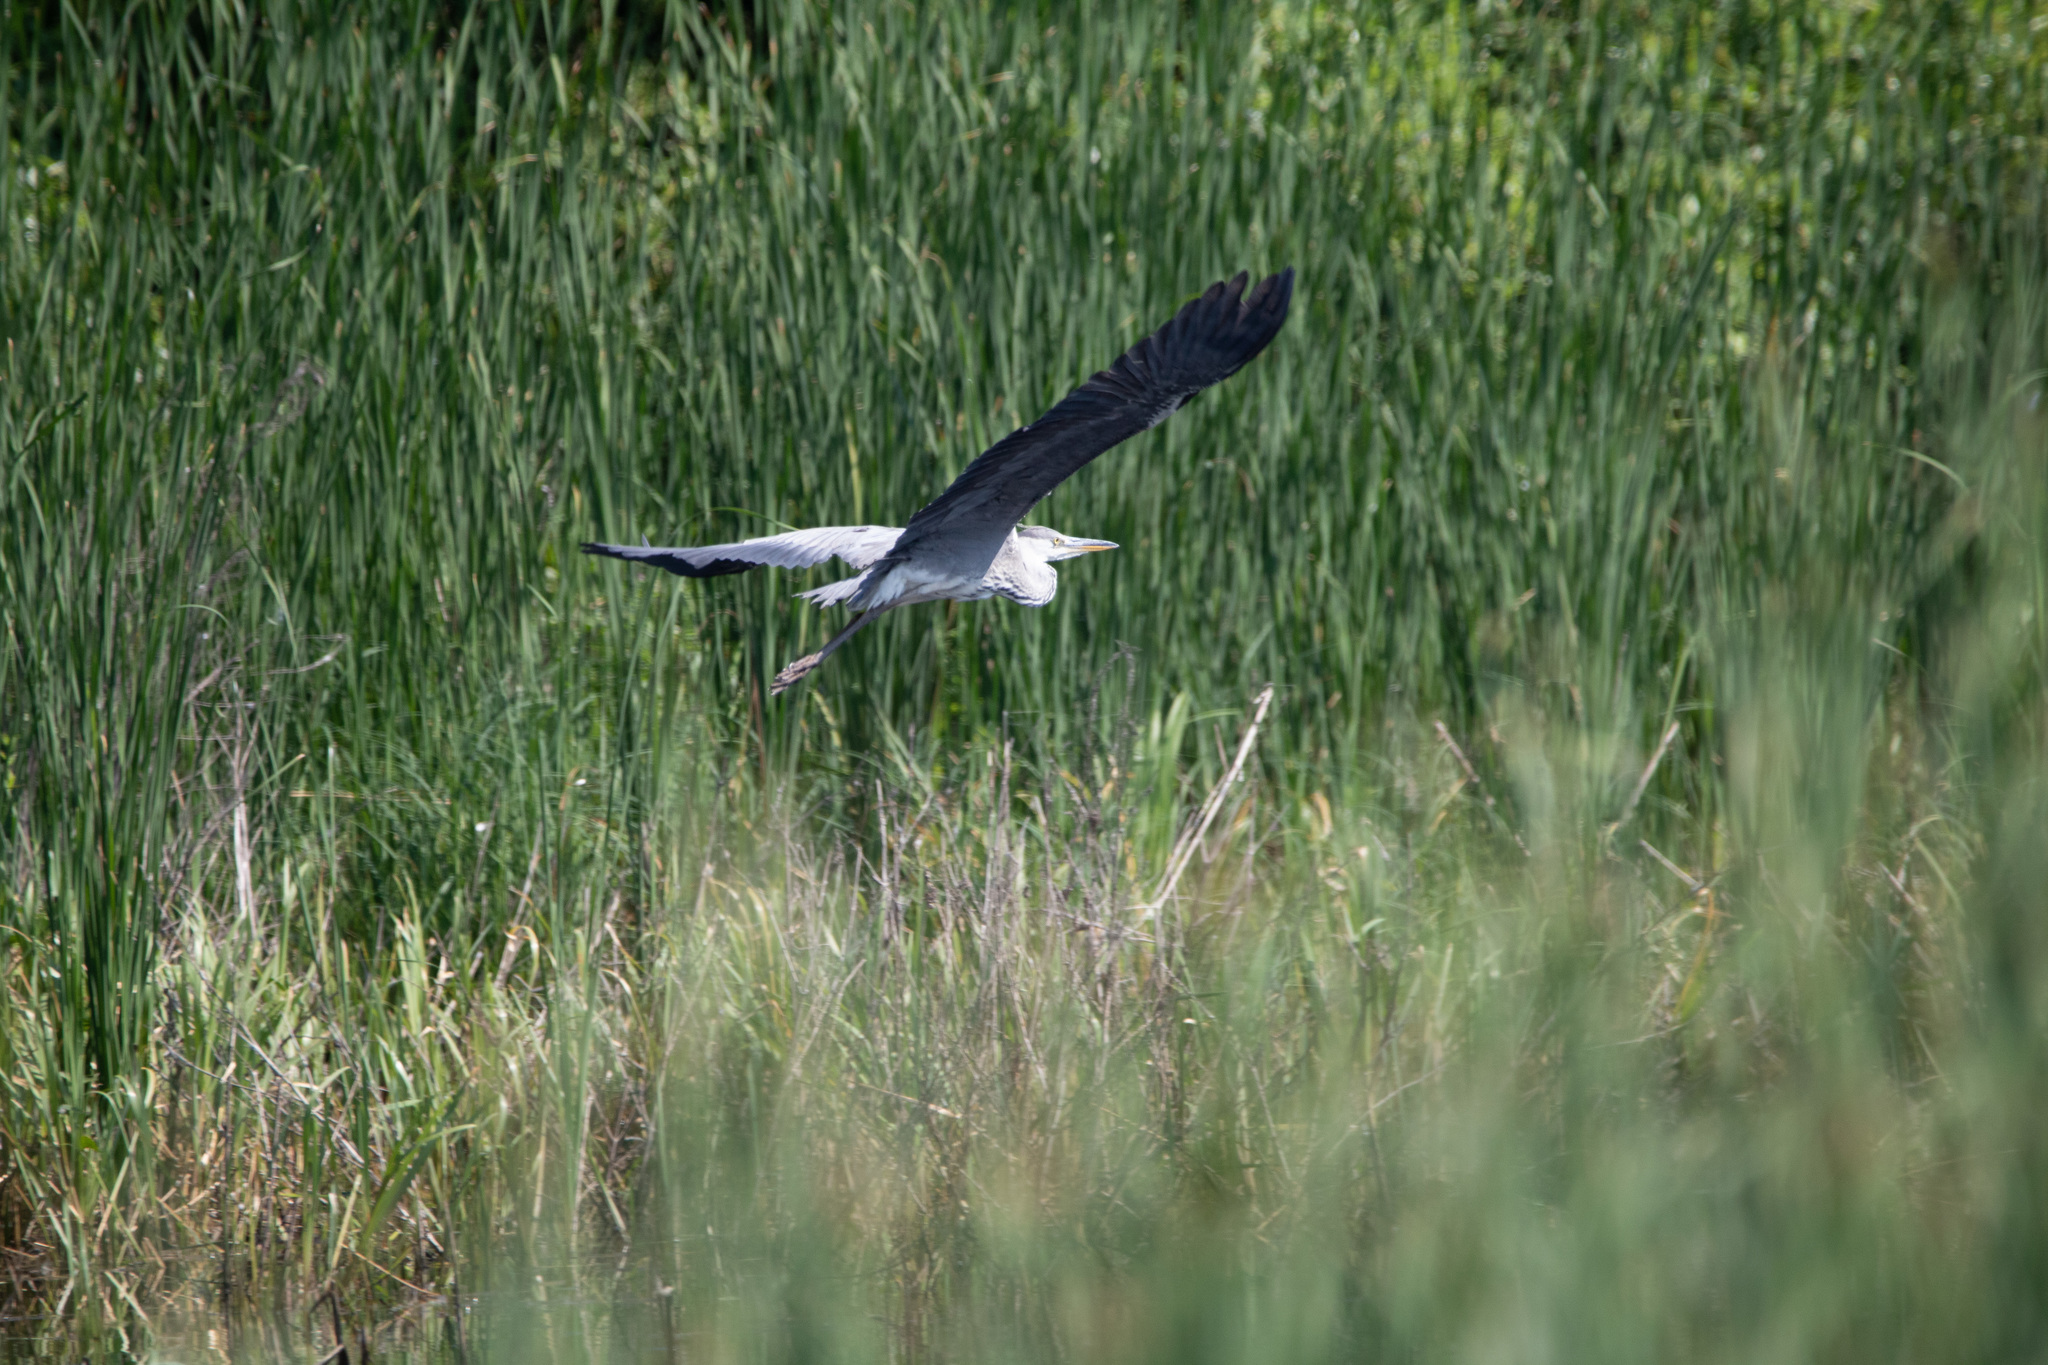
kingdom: Animalia
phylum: Chordata
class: Aves
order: Pelecaniformes
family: Ardeidae
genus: Ardea
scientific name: Ardea cinerea
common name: Grey heron
